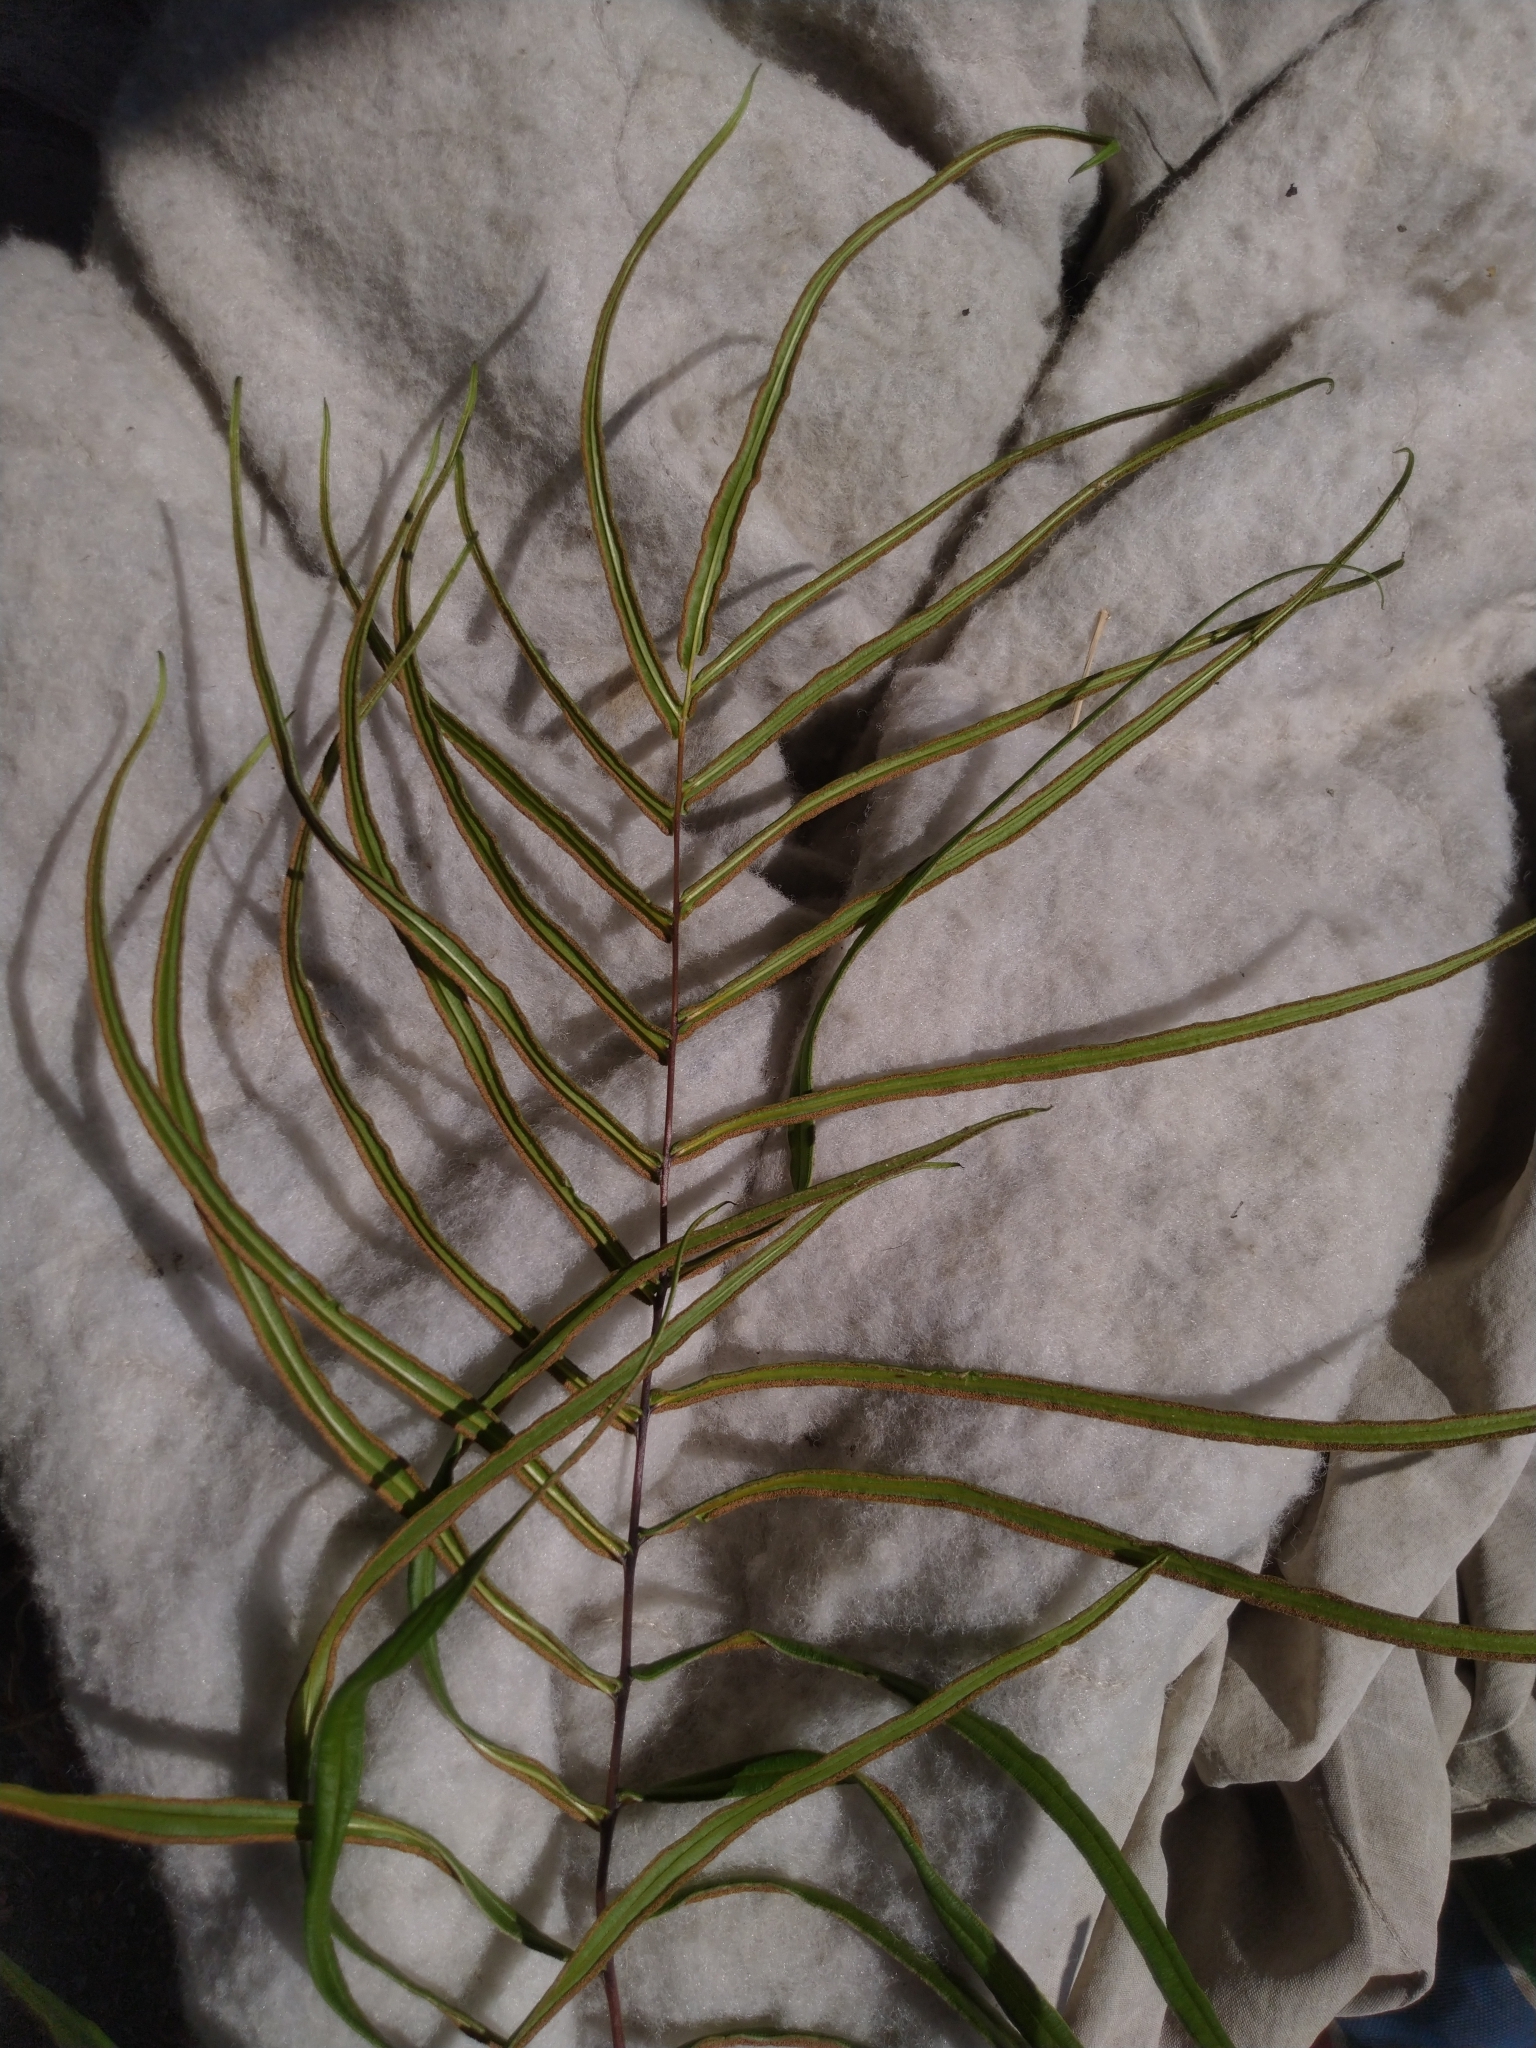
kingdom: Plantae
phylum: Tracheophyta
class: Polypodiopsida
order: Polypodiales
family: Pteridaceae
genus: Pteris
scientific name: Pteris vittata
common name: Ladder brake
